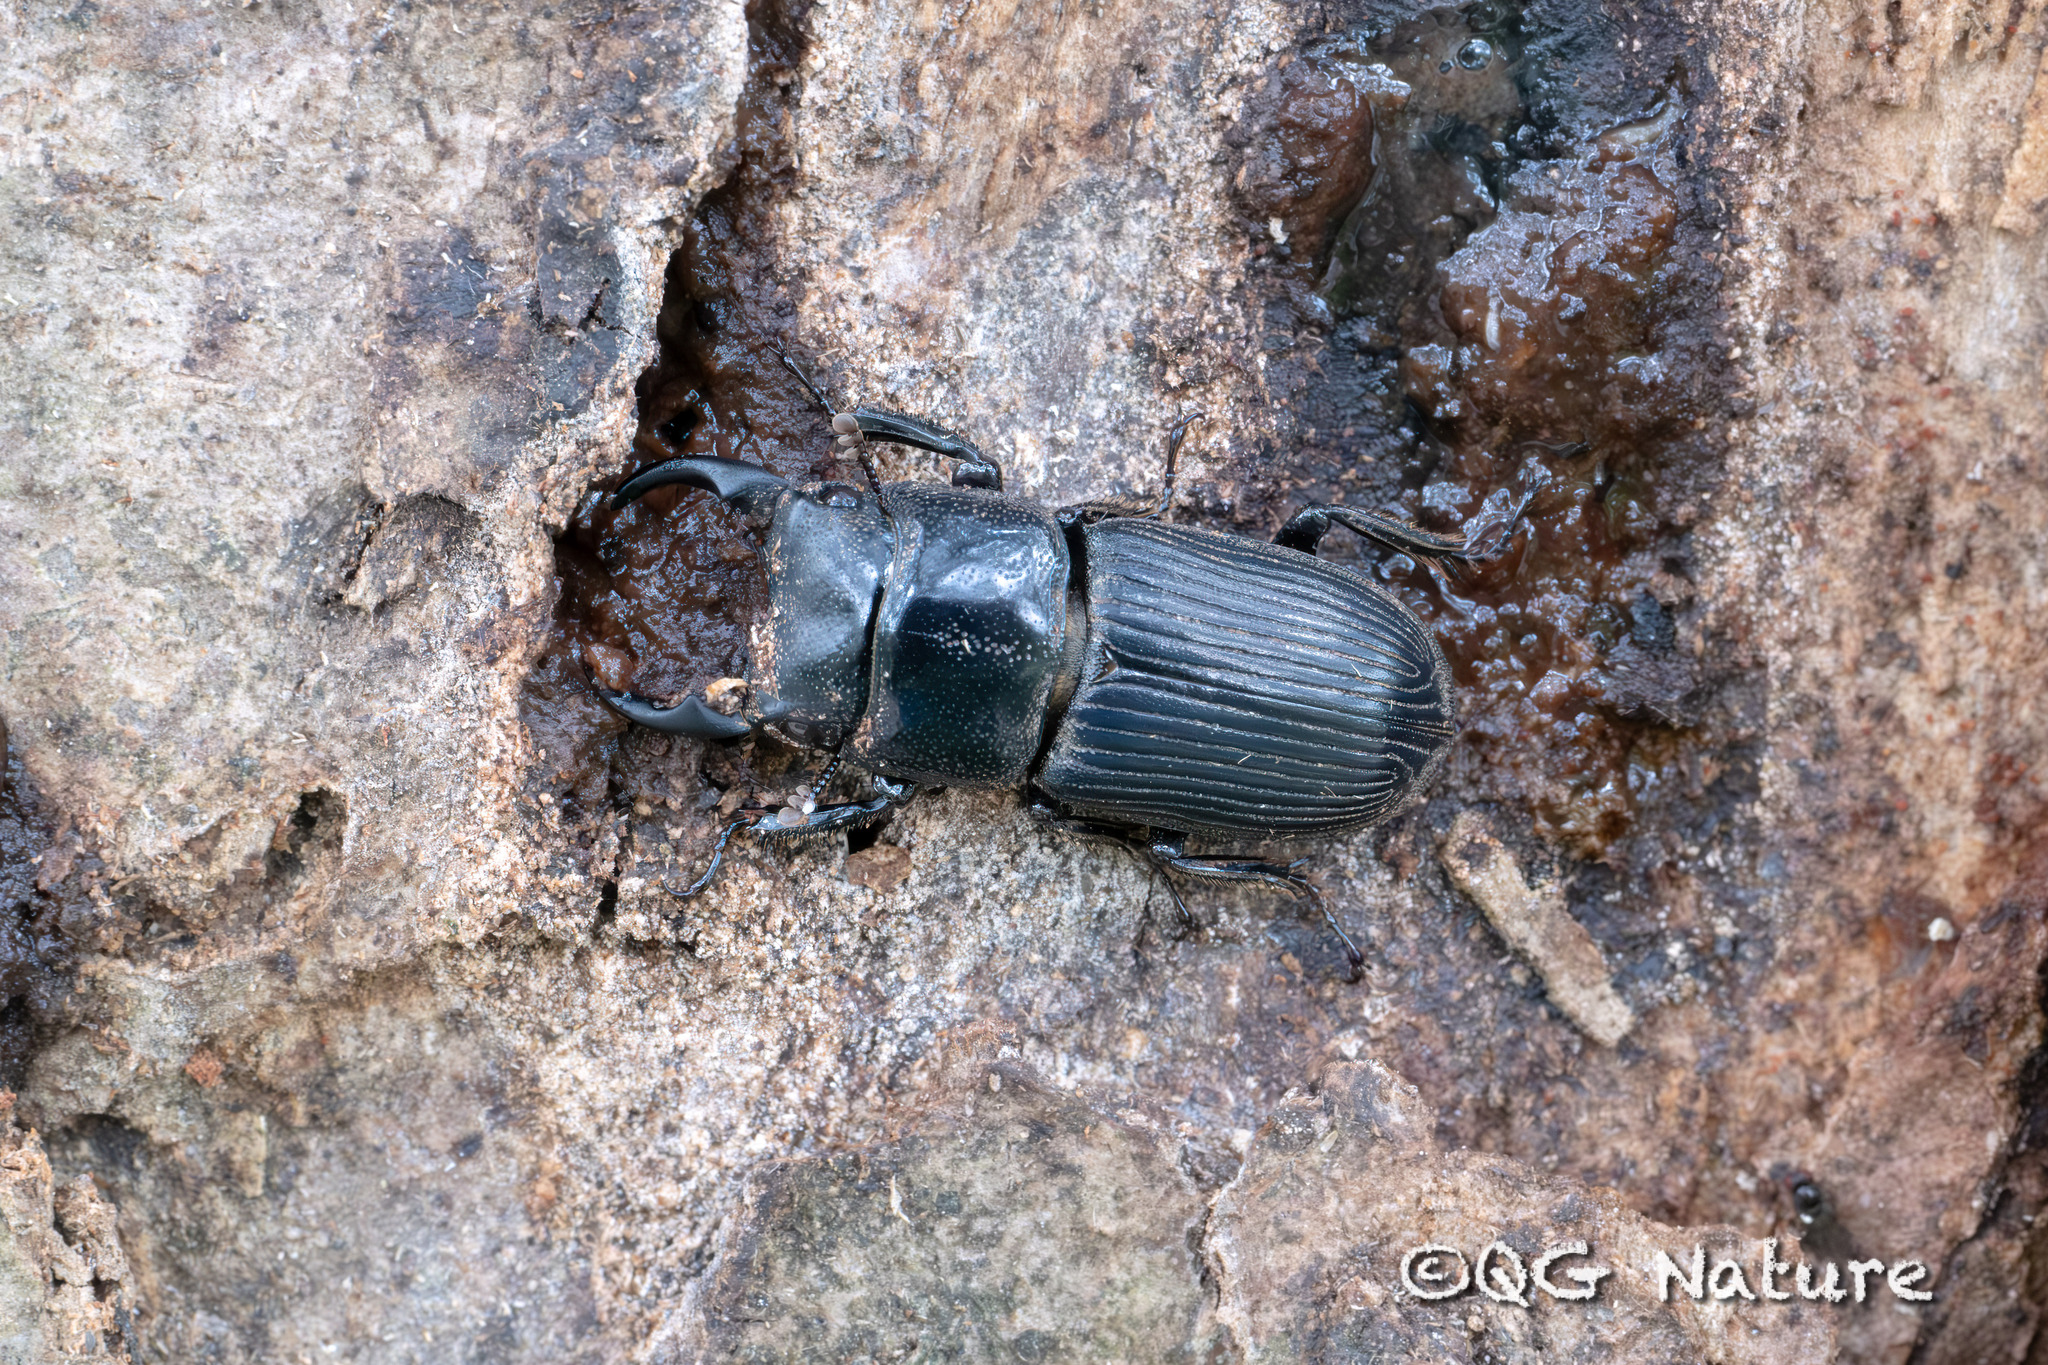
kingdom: Animalia
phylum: Arthropoda
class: Insecta
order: Coleoptera
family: Lucanidae
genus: Aegus
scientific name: Aegus laevicollis
